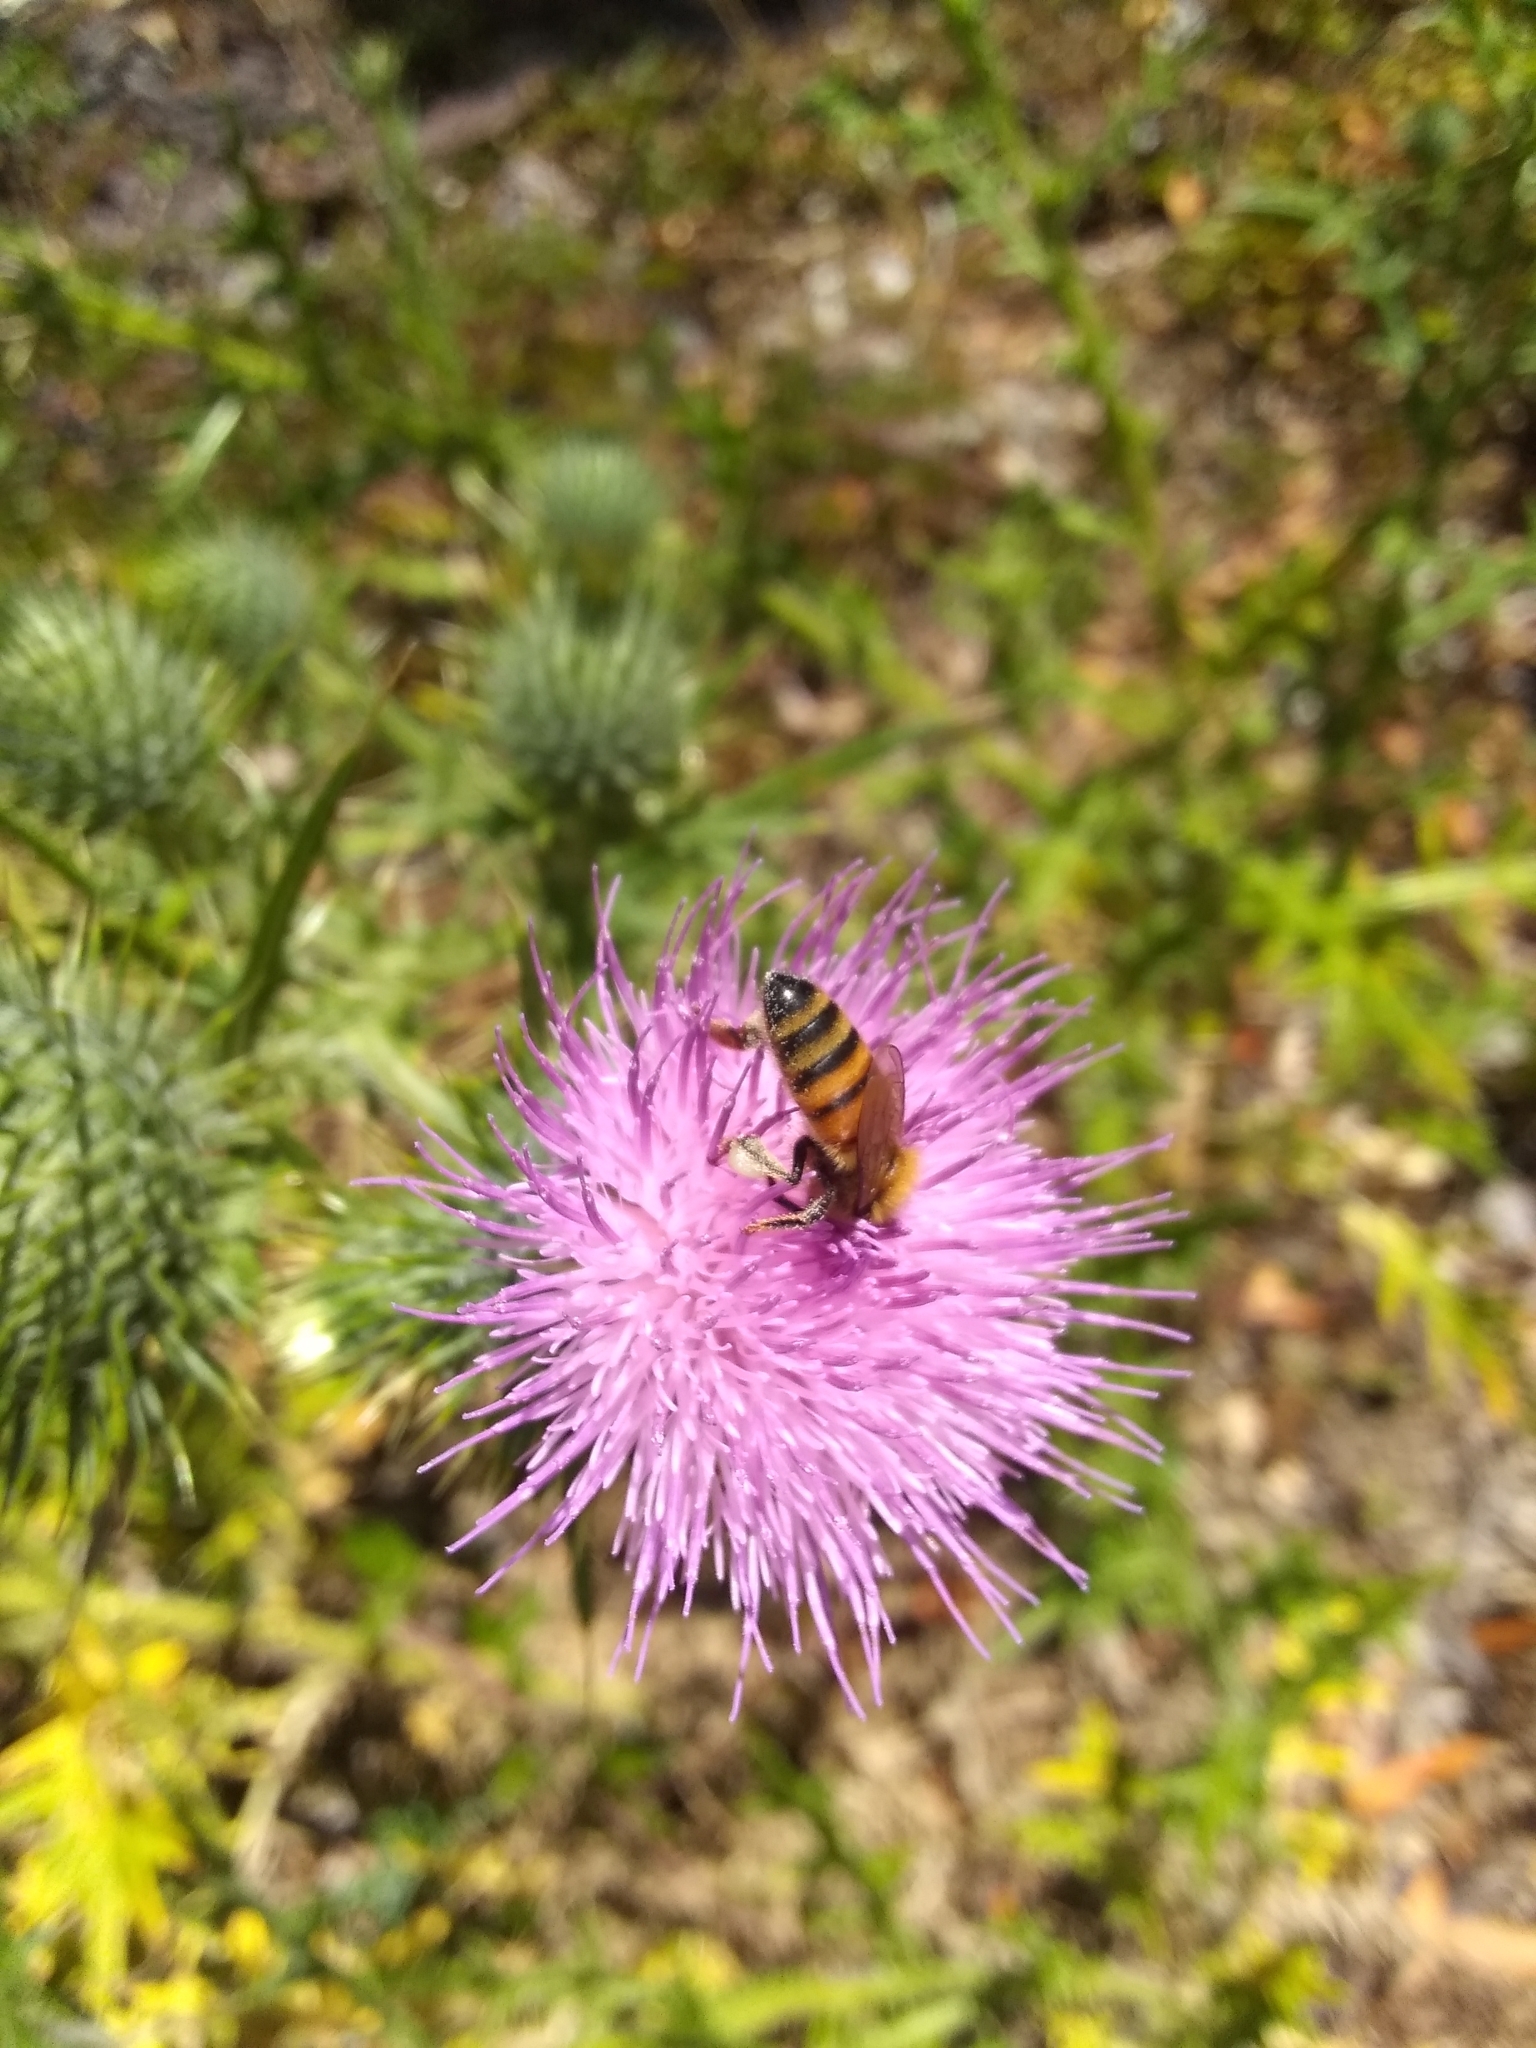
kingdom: Animalia
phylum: Arthropoda
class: Insecta
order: Hymenoptera
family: Apidae
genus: Apis
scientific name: Apis mellifera
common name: Honey bee
